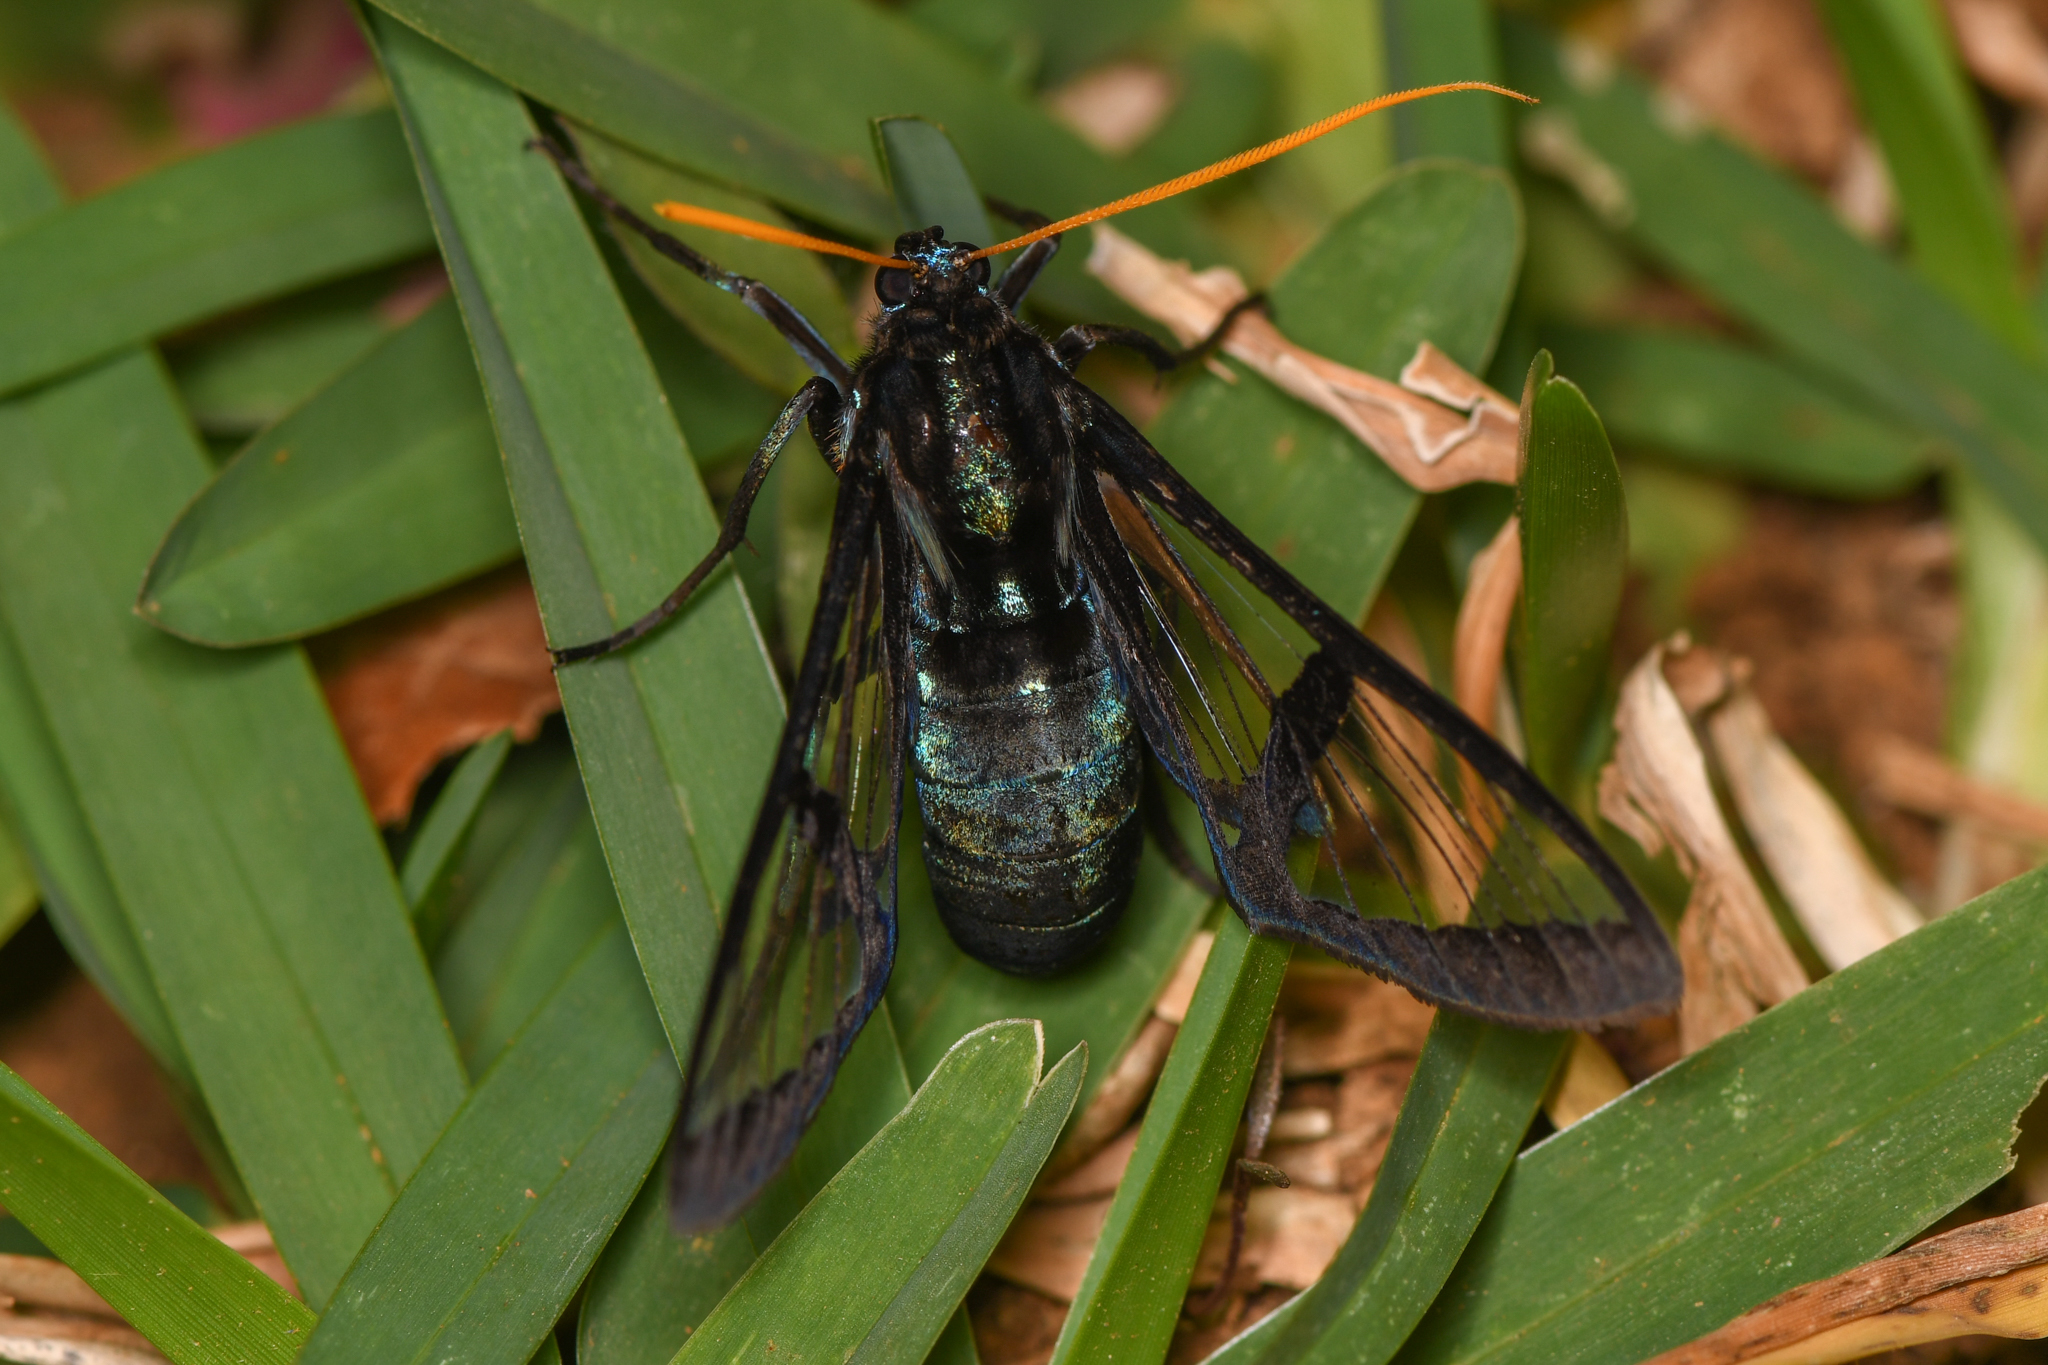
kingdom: Animalia
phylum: Arthropoda
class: Insecta
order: Lepidoptera
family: Erebidae
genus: Nyridela
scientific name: Nyridela xanthocera
